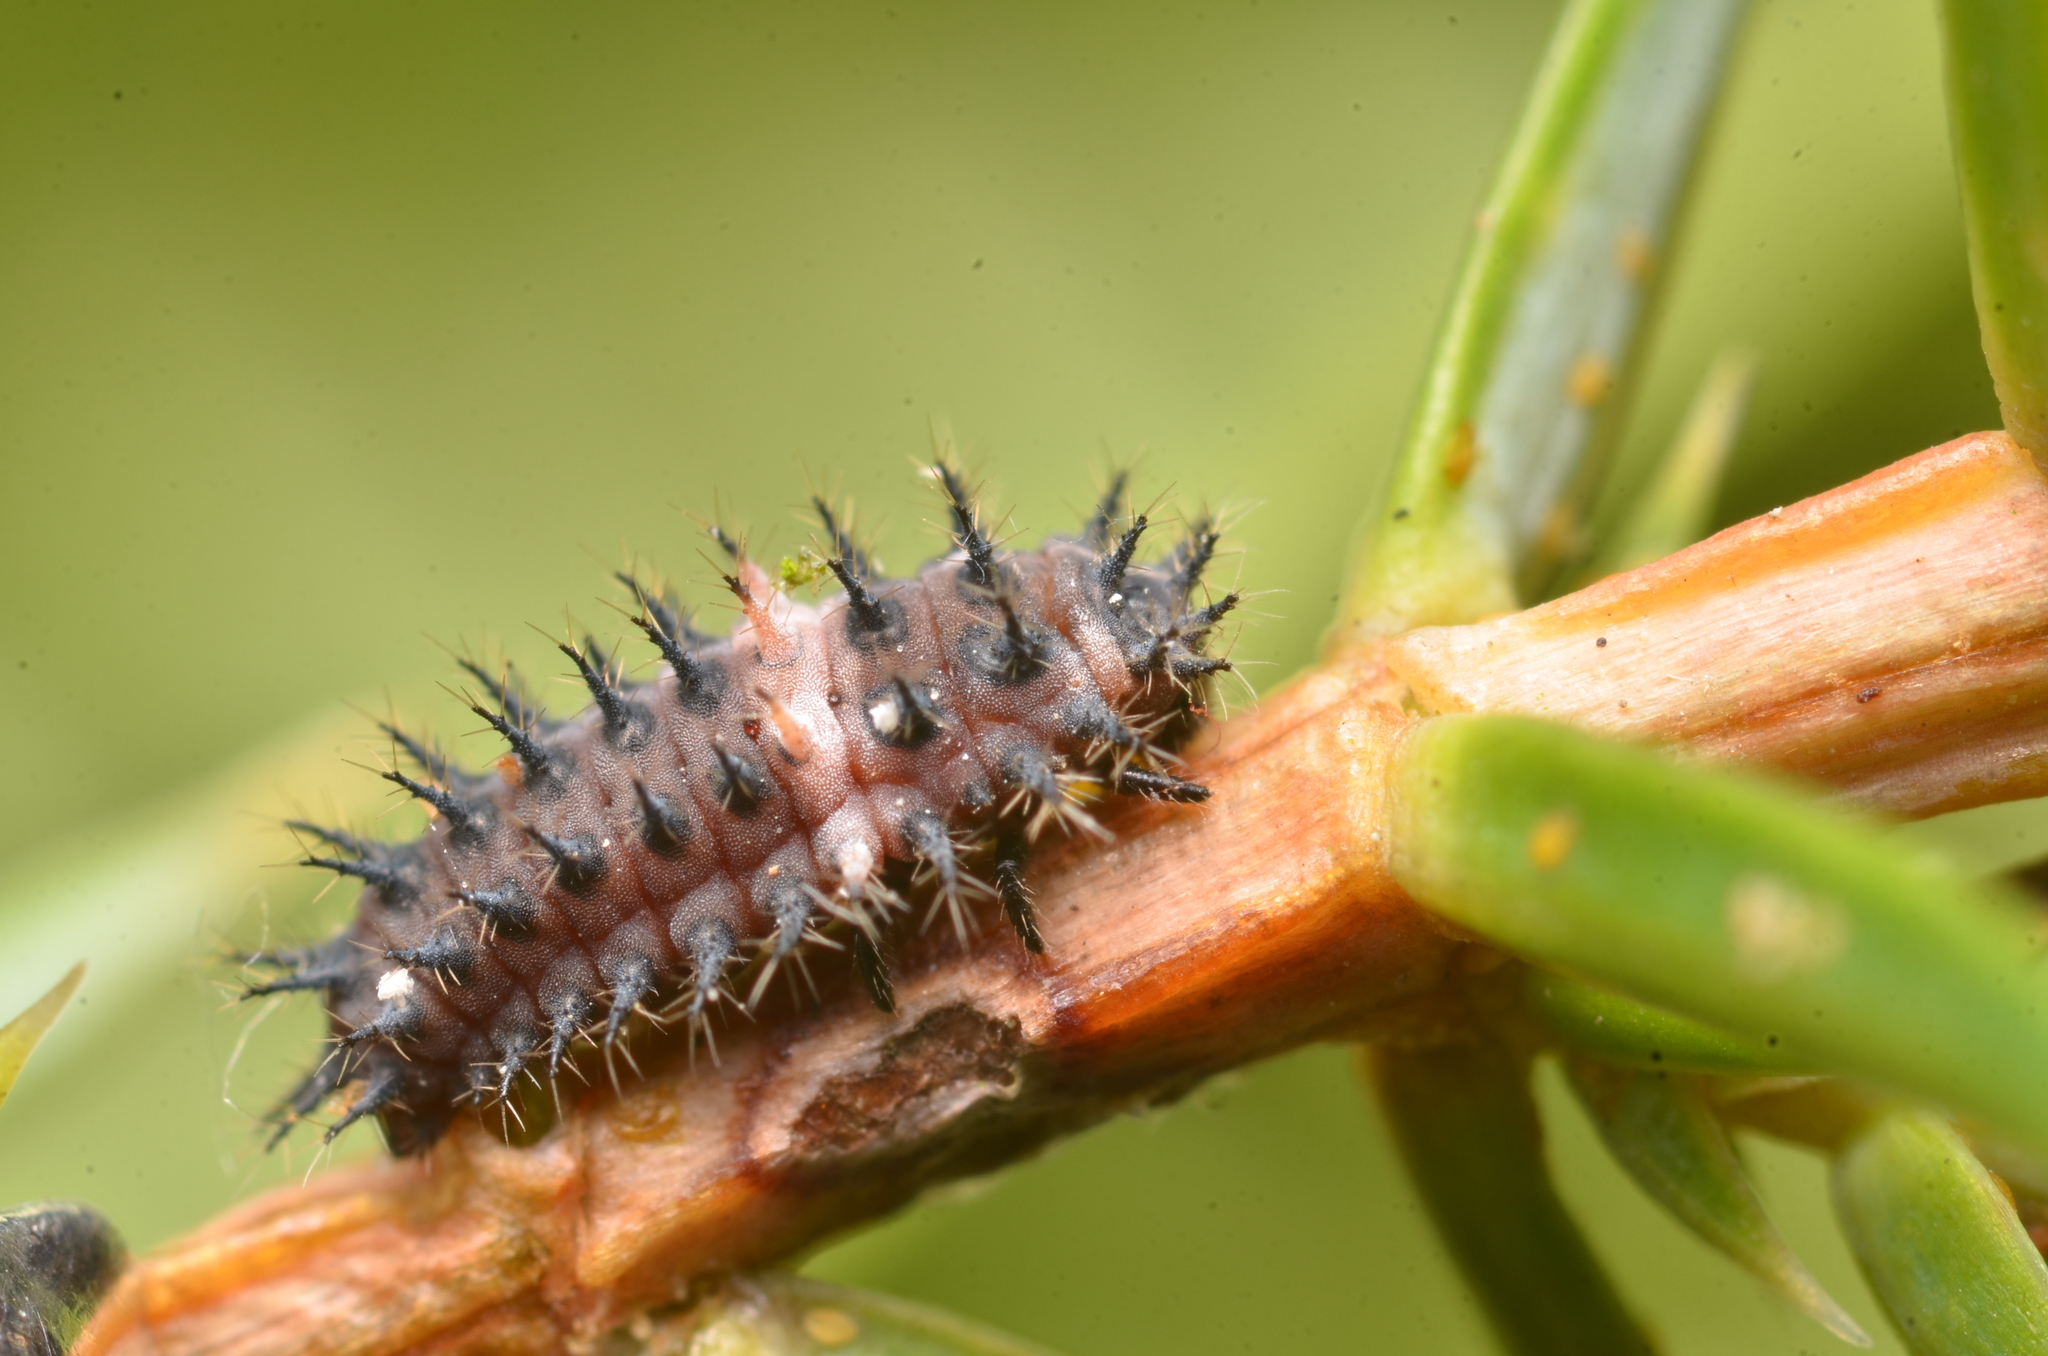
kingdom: Animalia
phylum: Arthropoda
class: Insecta
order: Coleoptera
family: Coccinellidae
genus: Chilocorus
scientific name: Chilocorus bipustulatus
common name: Heather ladybird
